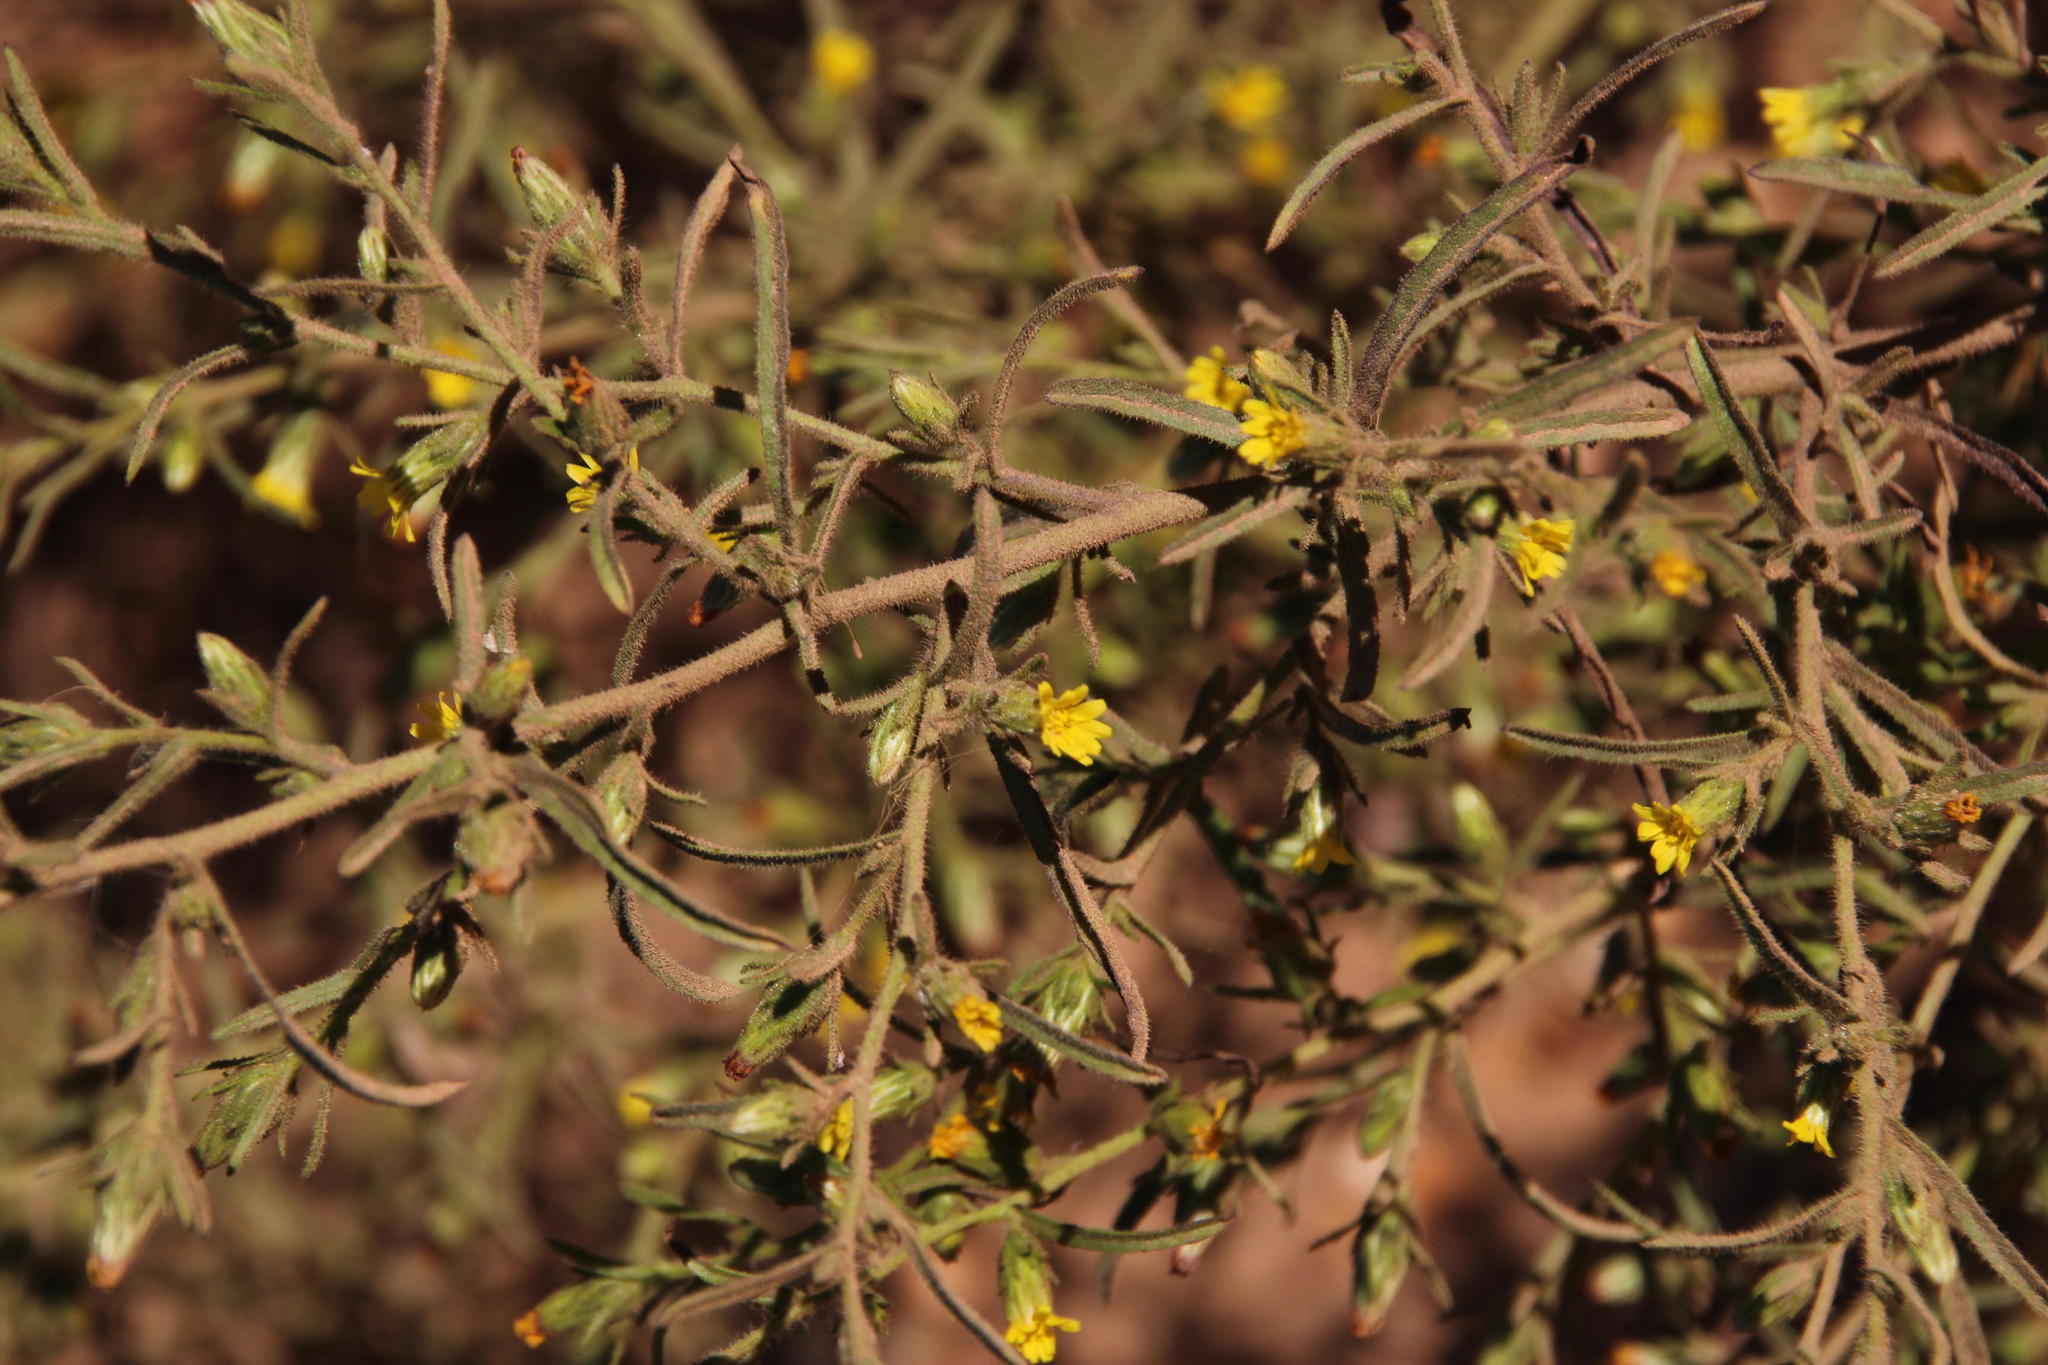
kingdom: Plantae
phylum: Tracheophyta
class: Magnoliopsida
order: Asterales
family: Asteraceae
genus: Dittrichia
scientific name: Dittrichia graveolens
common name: Stinking fleabane
